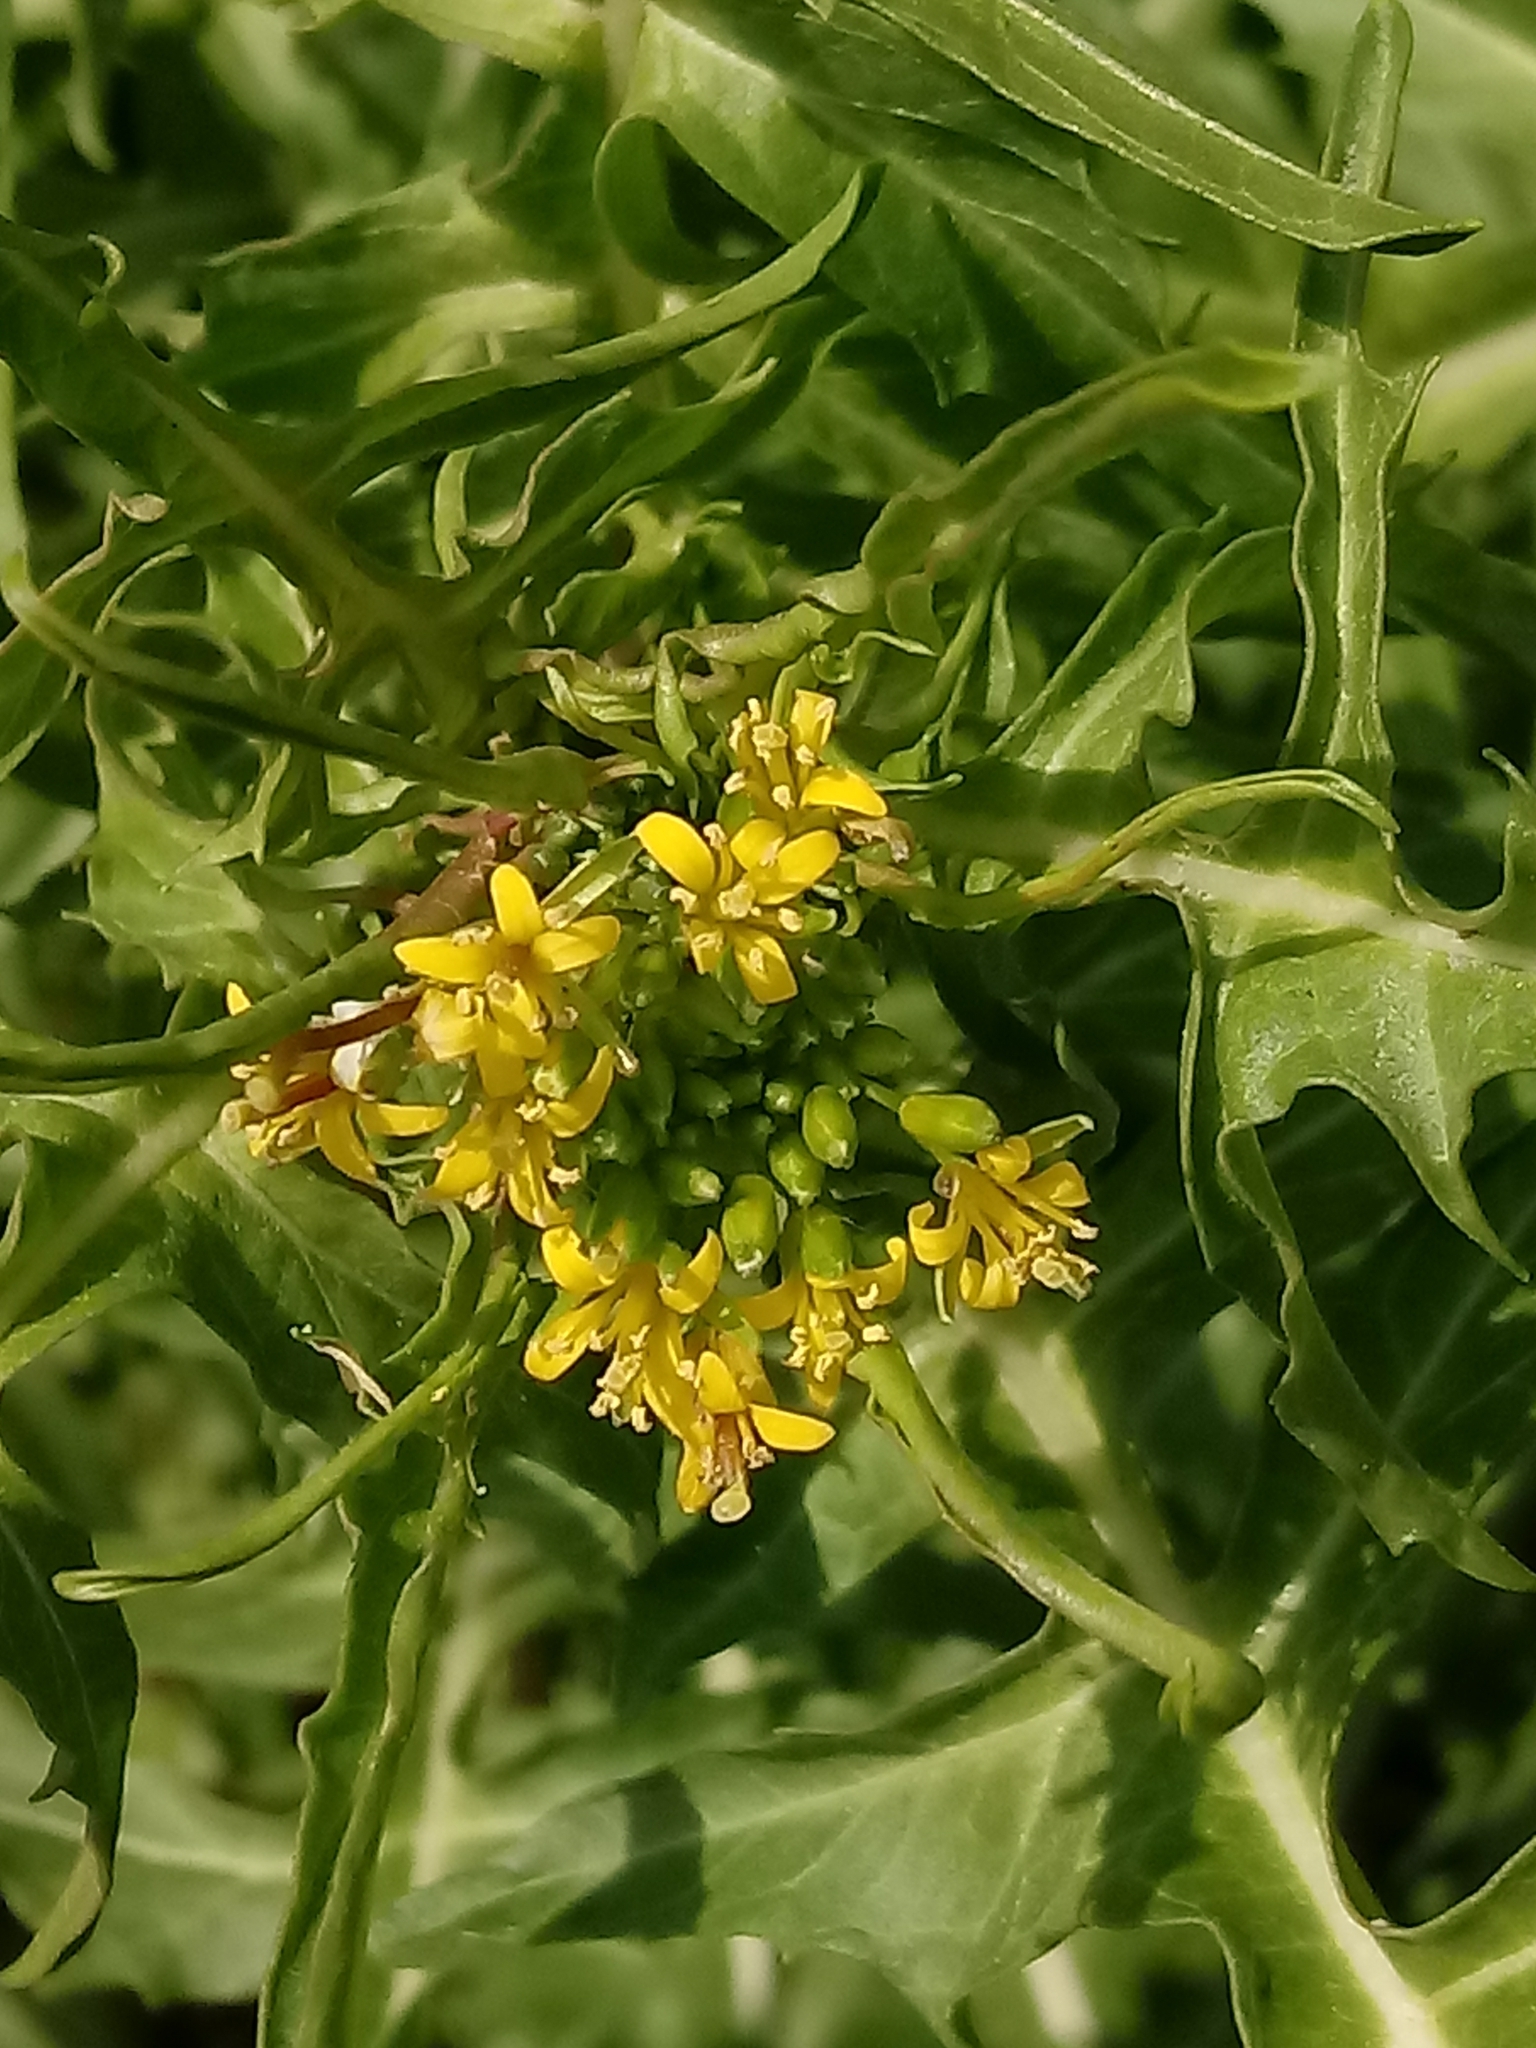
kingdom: Plantae
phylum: Tracheophyta
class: Magnoliopsida
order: Brassicales
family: Brassicaceae
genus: Sisymbrium
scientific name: Sisymbrium irio
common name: London rocket
